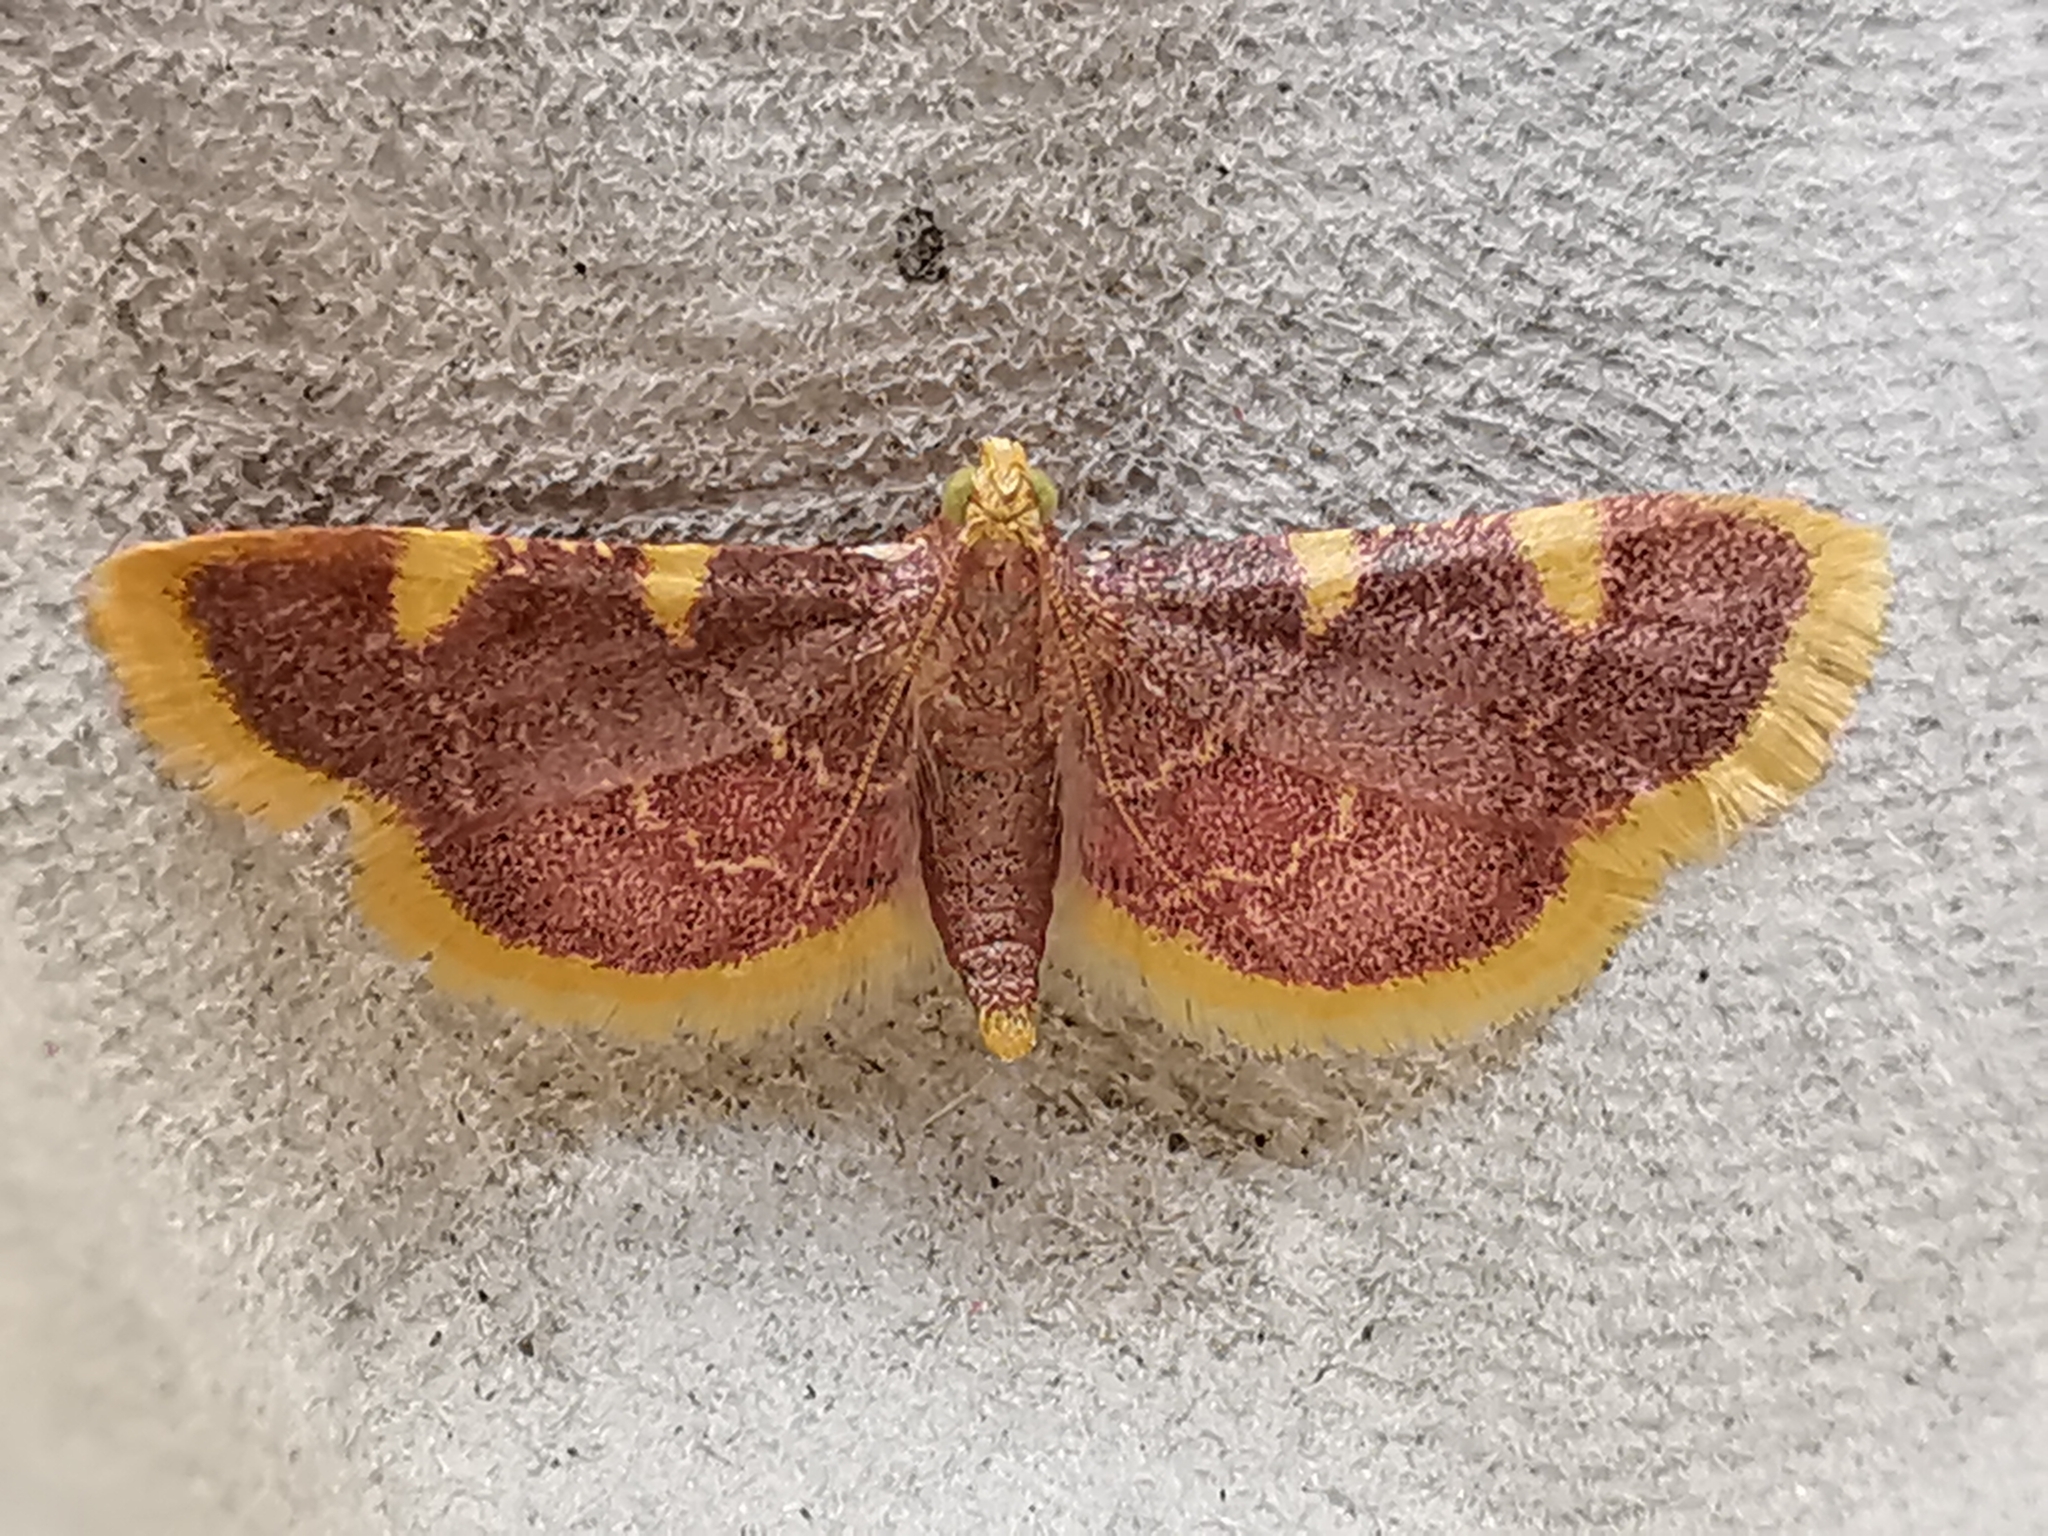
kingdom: Animalia
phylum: Arthropoda
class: Insecta
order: Lepidoptera
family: Pyralidae
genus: Hypsopygia
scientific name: Hypsopygia costalis
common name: Gold triangle
